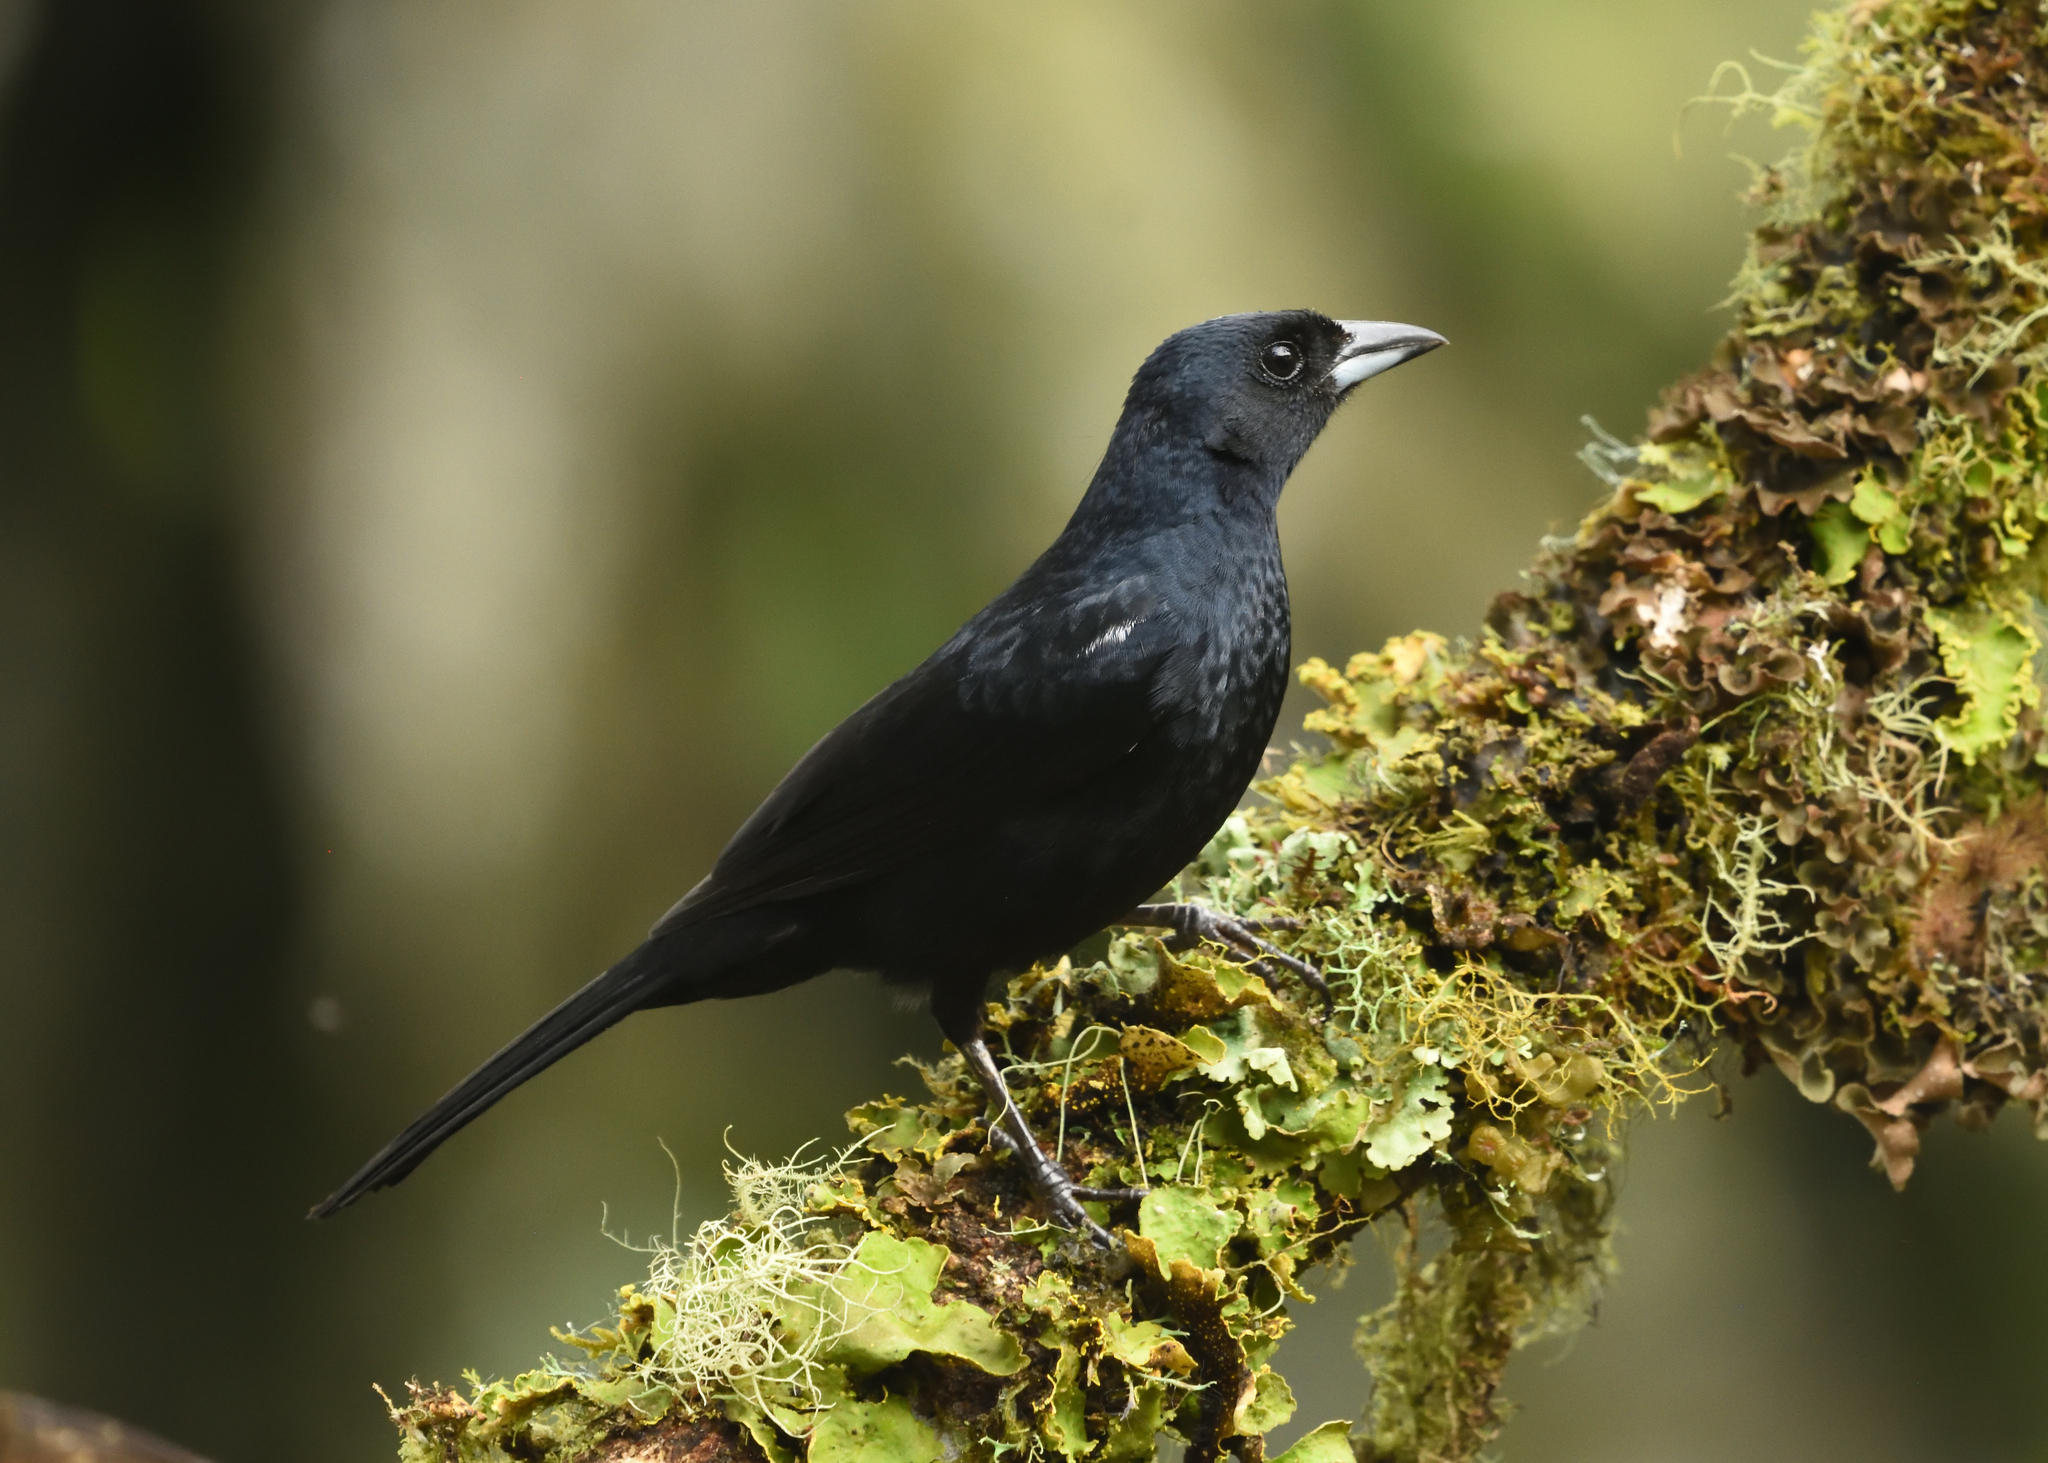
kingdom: Animalia
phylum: Chordata
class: Aves
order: Passeriformes
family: Thraupidae
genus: Tachyphonus
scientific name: Tachyphonus rufus
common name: White-lined tanager
